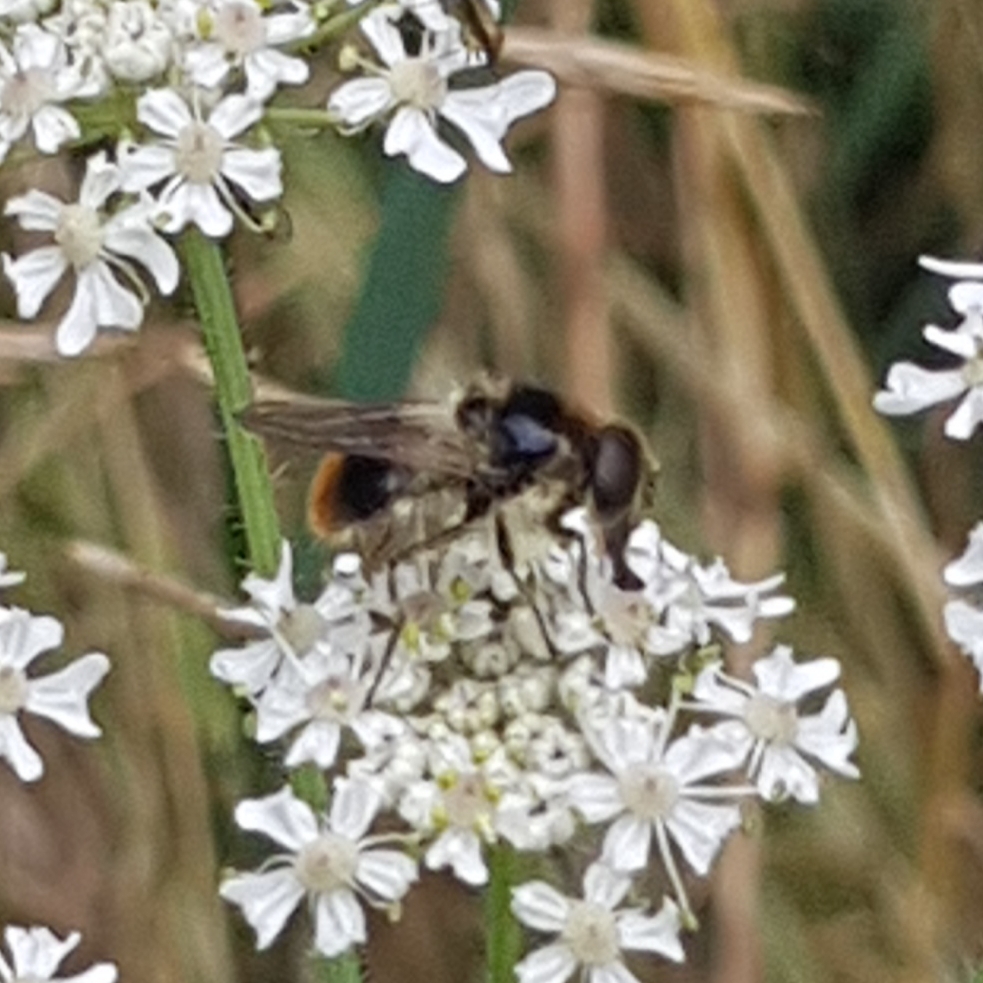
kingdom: Animalia
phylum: Arthropoda
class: Insecta
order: Diptera
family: Syrphidae
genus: Cheilosia
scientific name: Cheilosia illustrata
